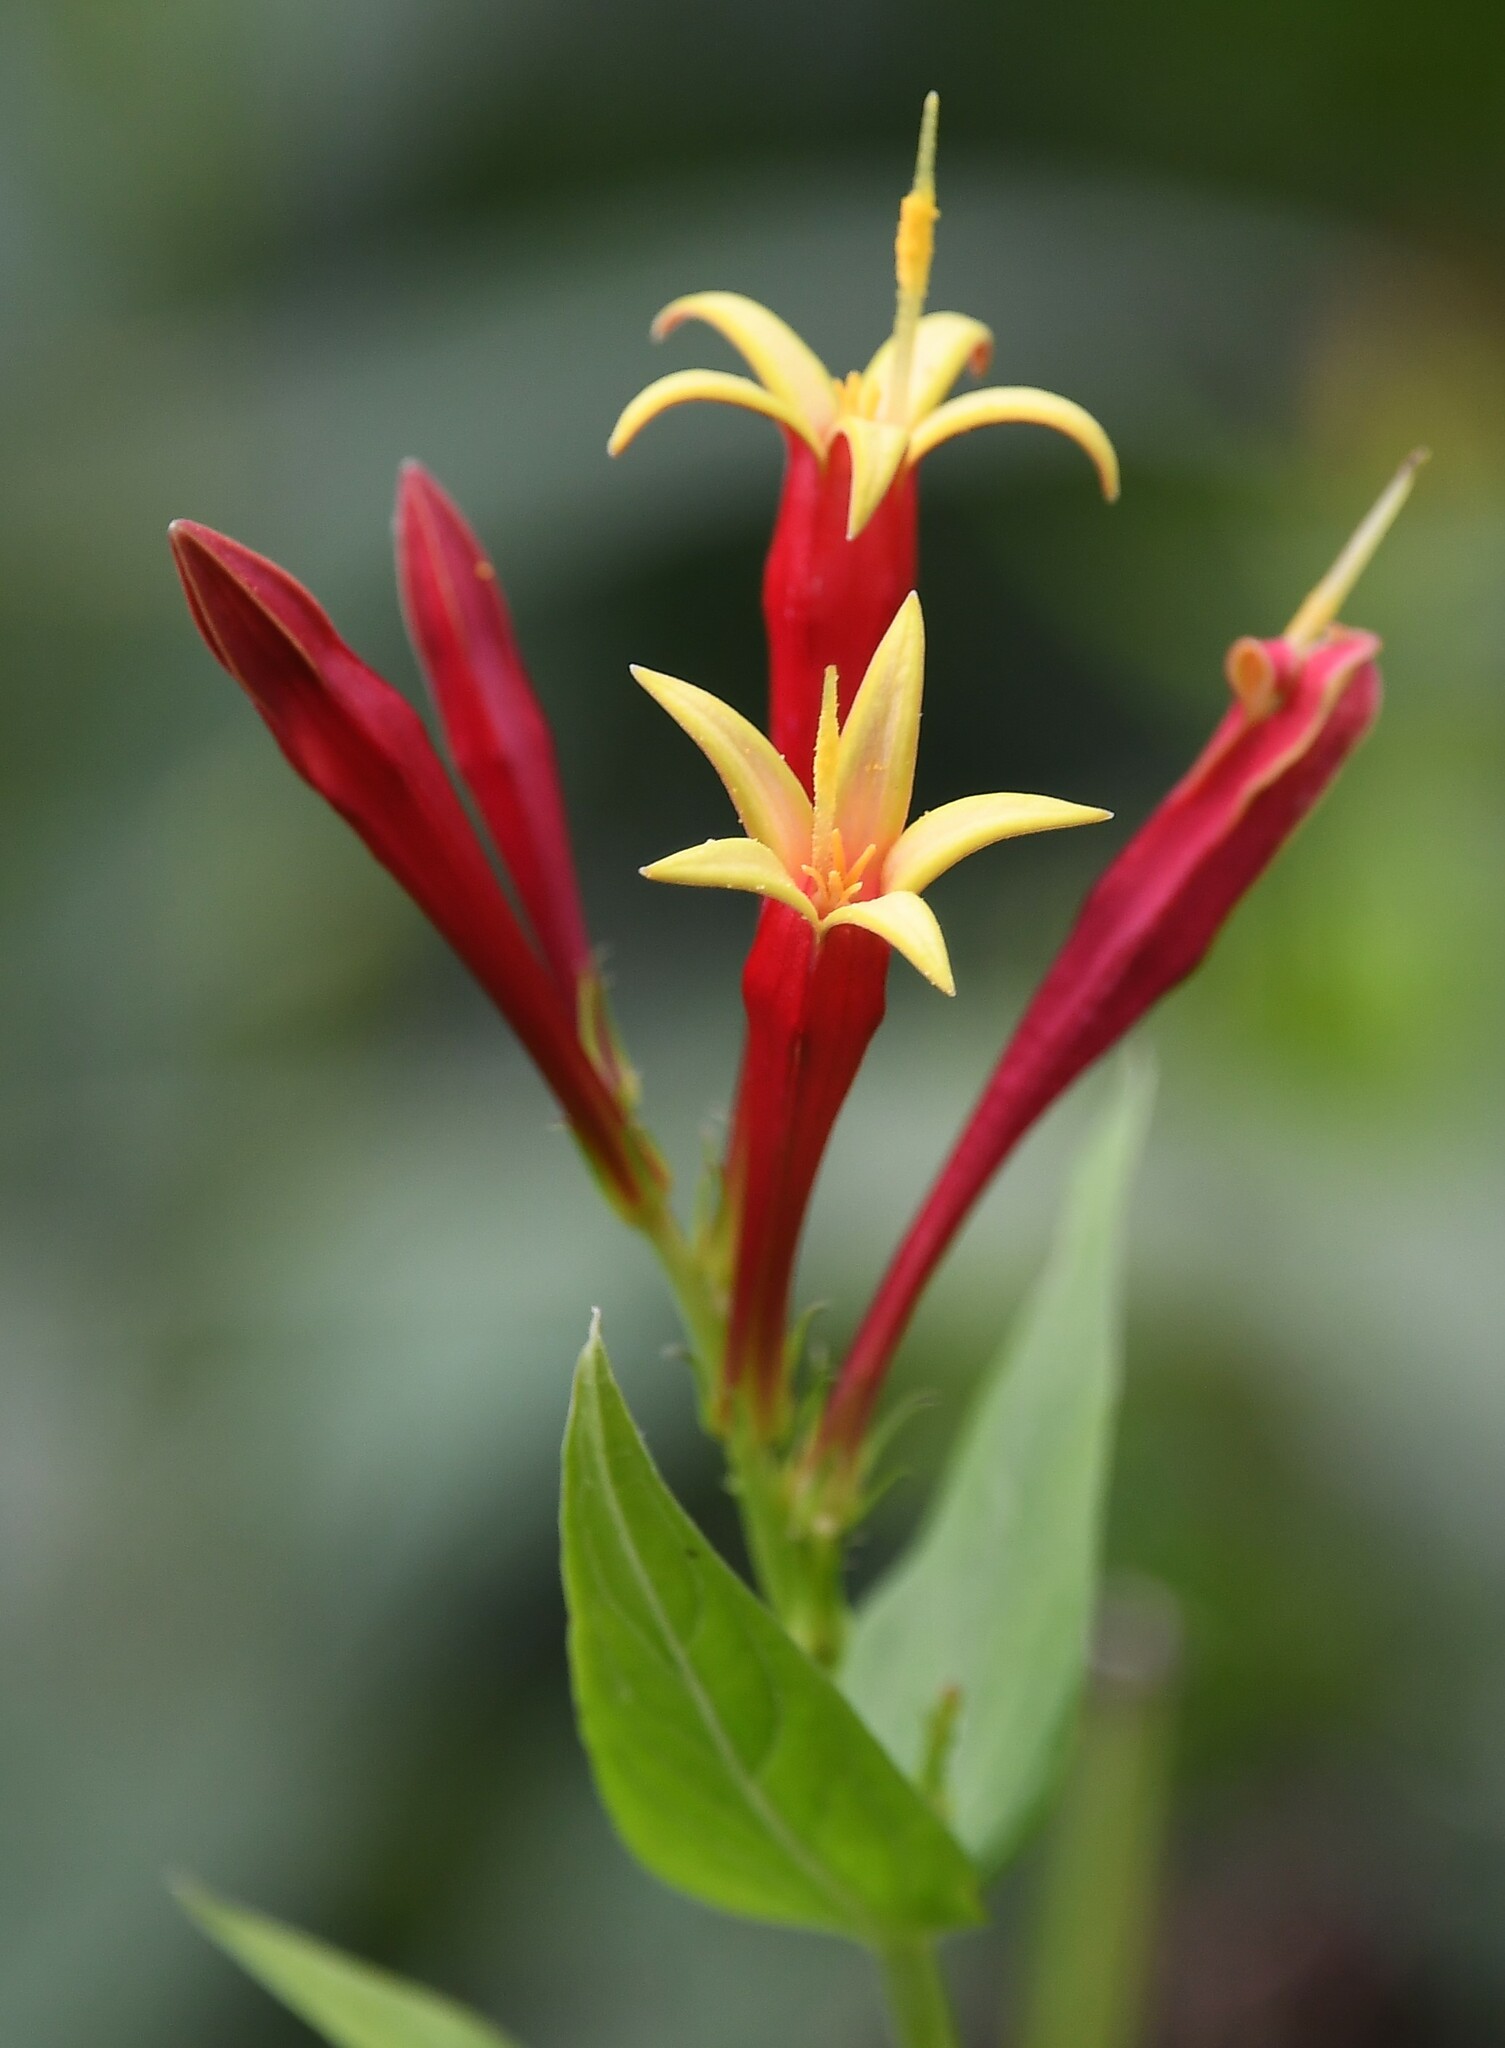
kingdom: Plantae
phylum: Tracheophyta
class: Magnoliopsida
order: Gentianales
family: Loganiaceae
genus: Spigelia
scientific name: Spigelia marilandica
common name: Indian-pink
